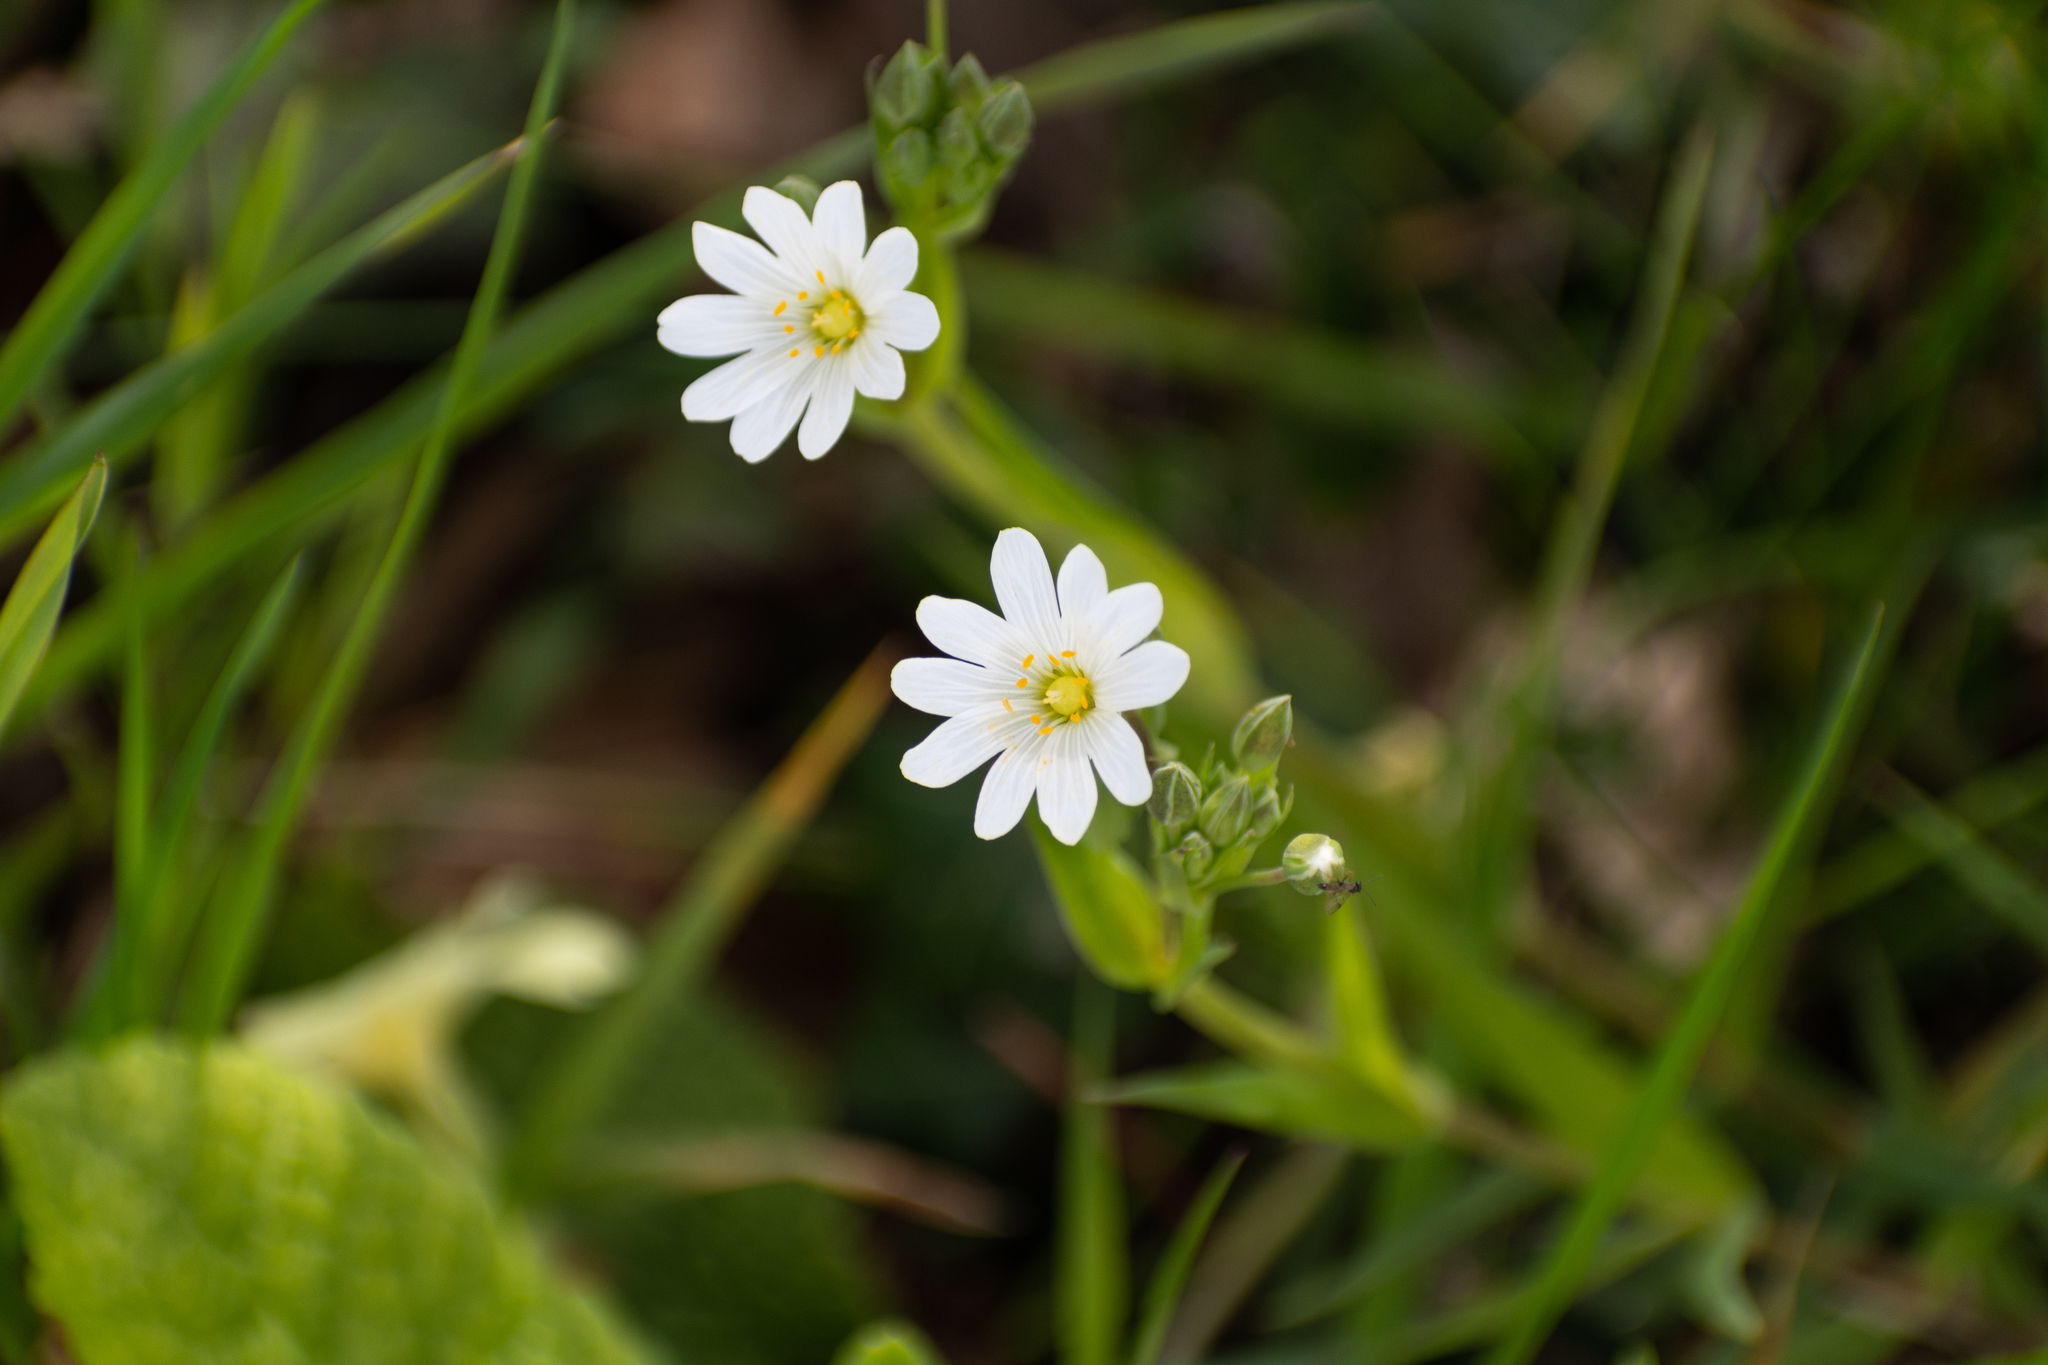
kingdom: Plantae
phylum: Tracheophyta
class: Magnoliopsida
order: Caryophyllales
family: Caryophyllaceae
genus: Rabelera
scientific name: Rabelera holostea
